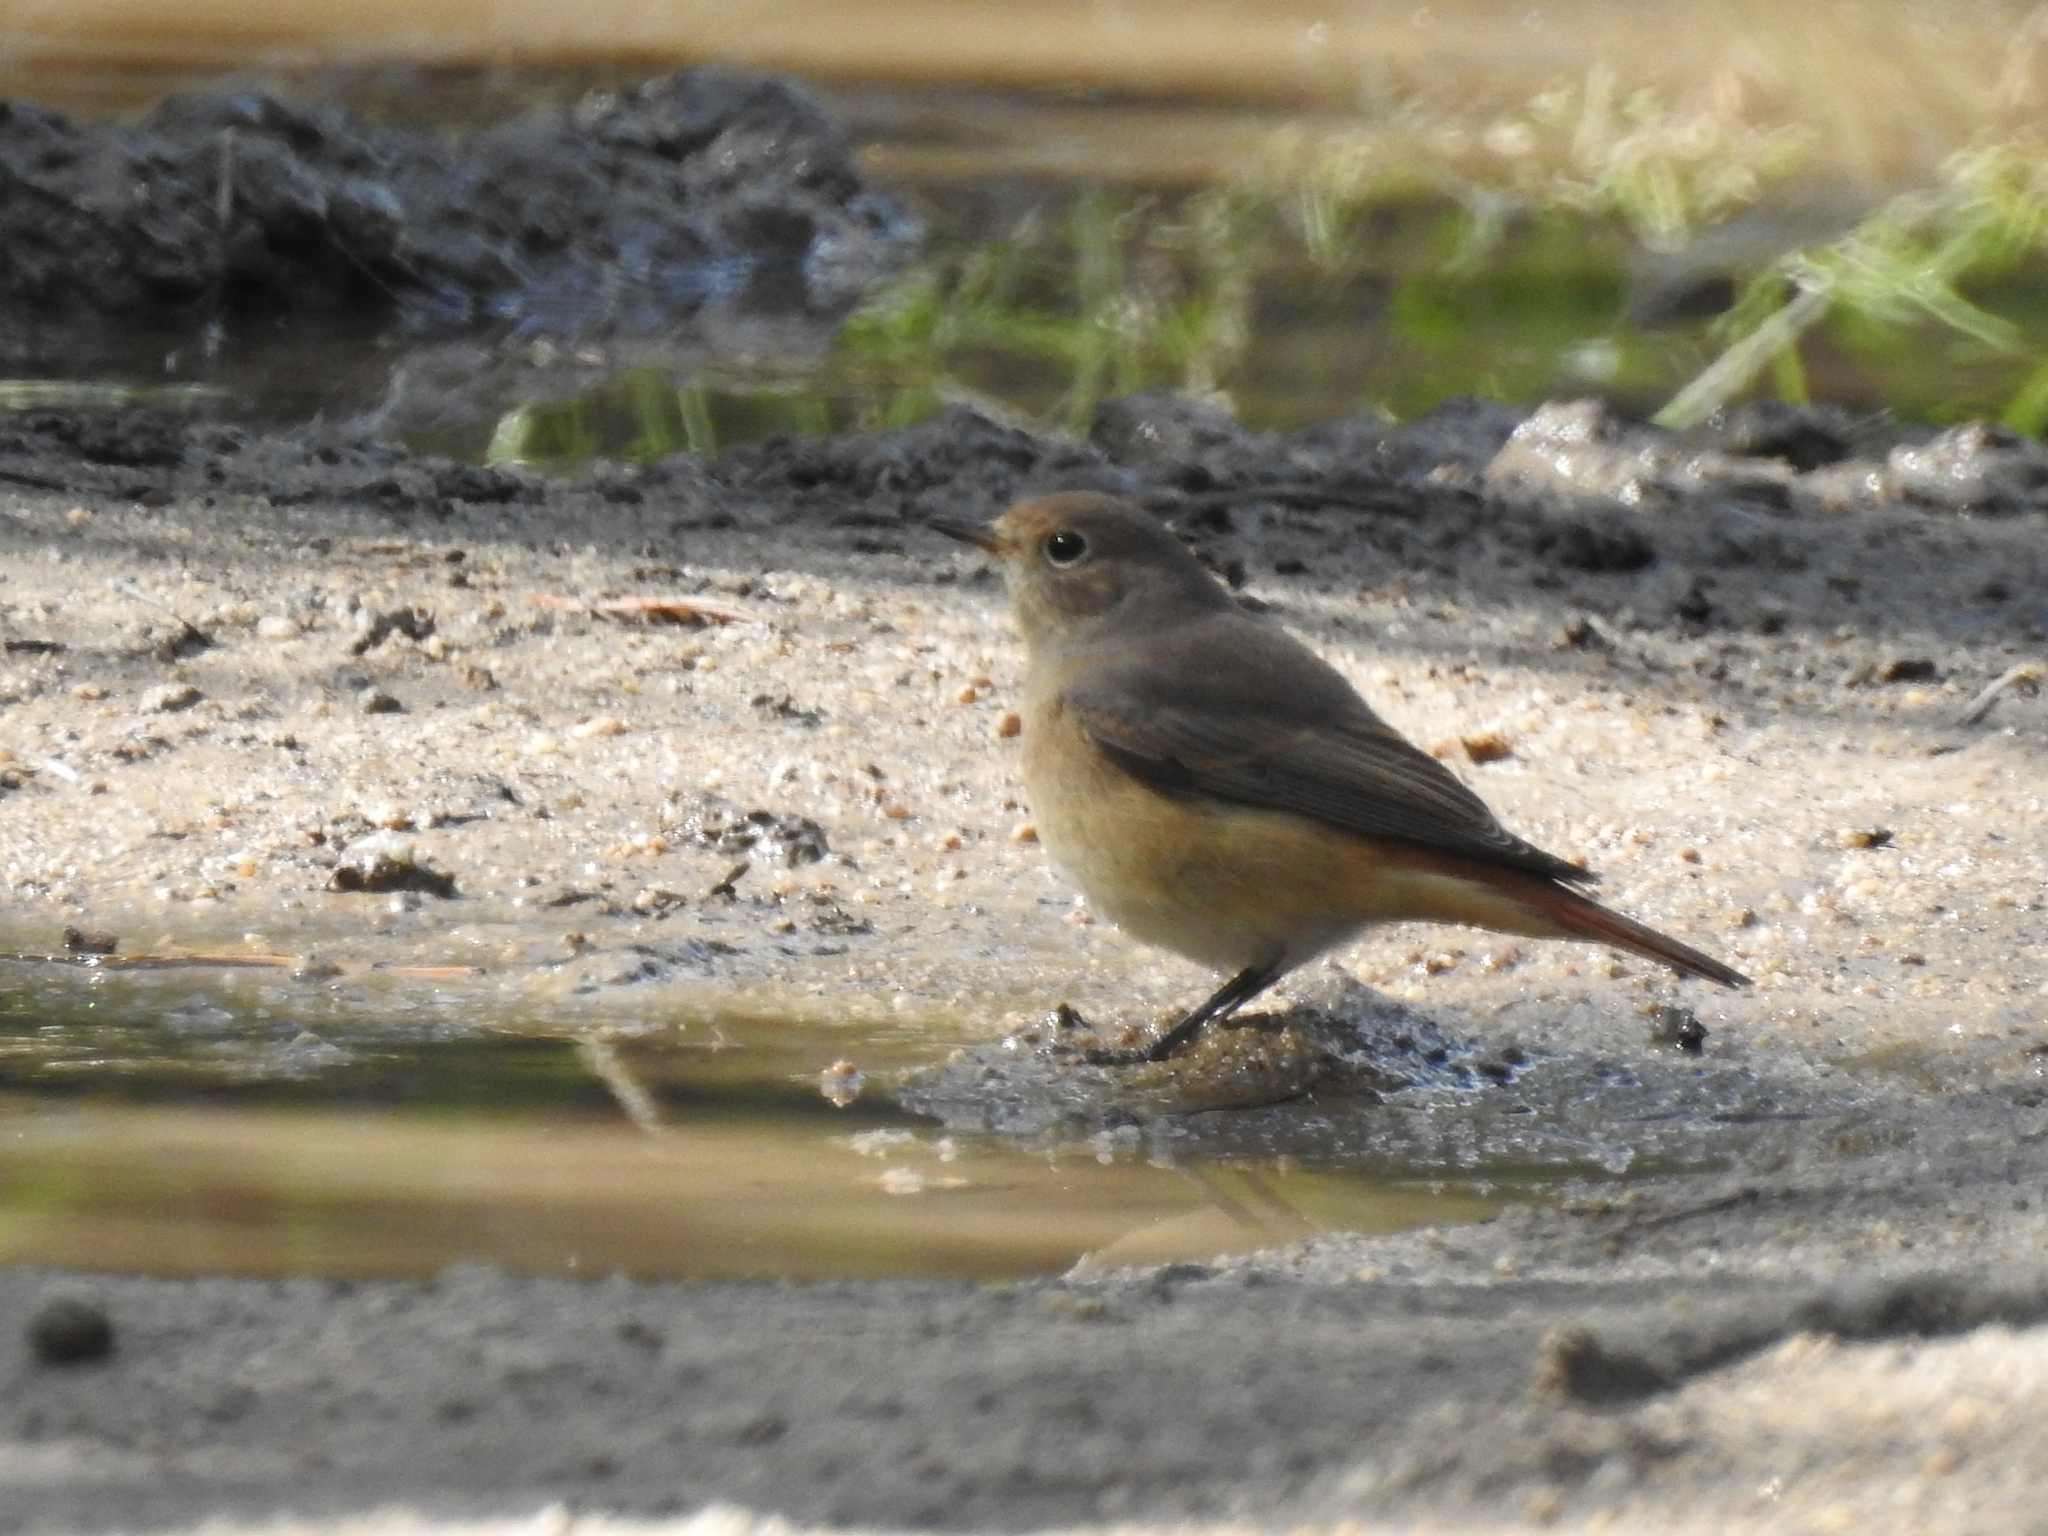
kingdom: Animalia
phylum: Chordata
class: Aves
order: Passeriformes
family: Muscicapidae
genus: Phoenicurus
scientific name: Phoenicurus phoenicurus
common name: Common redstart
